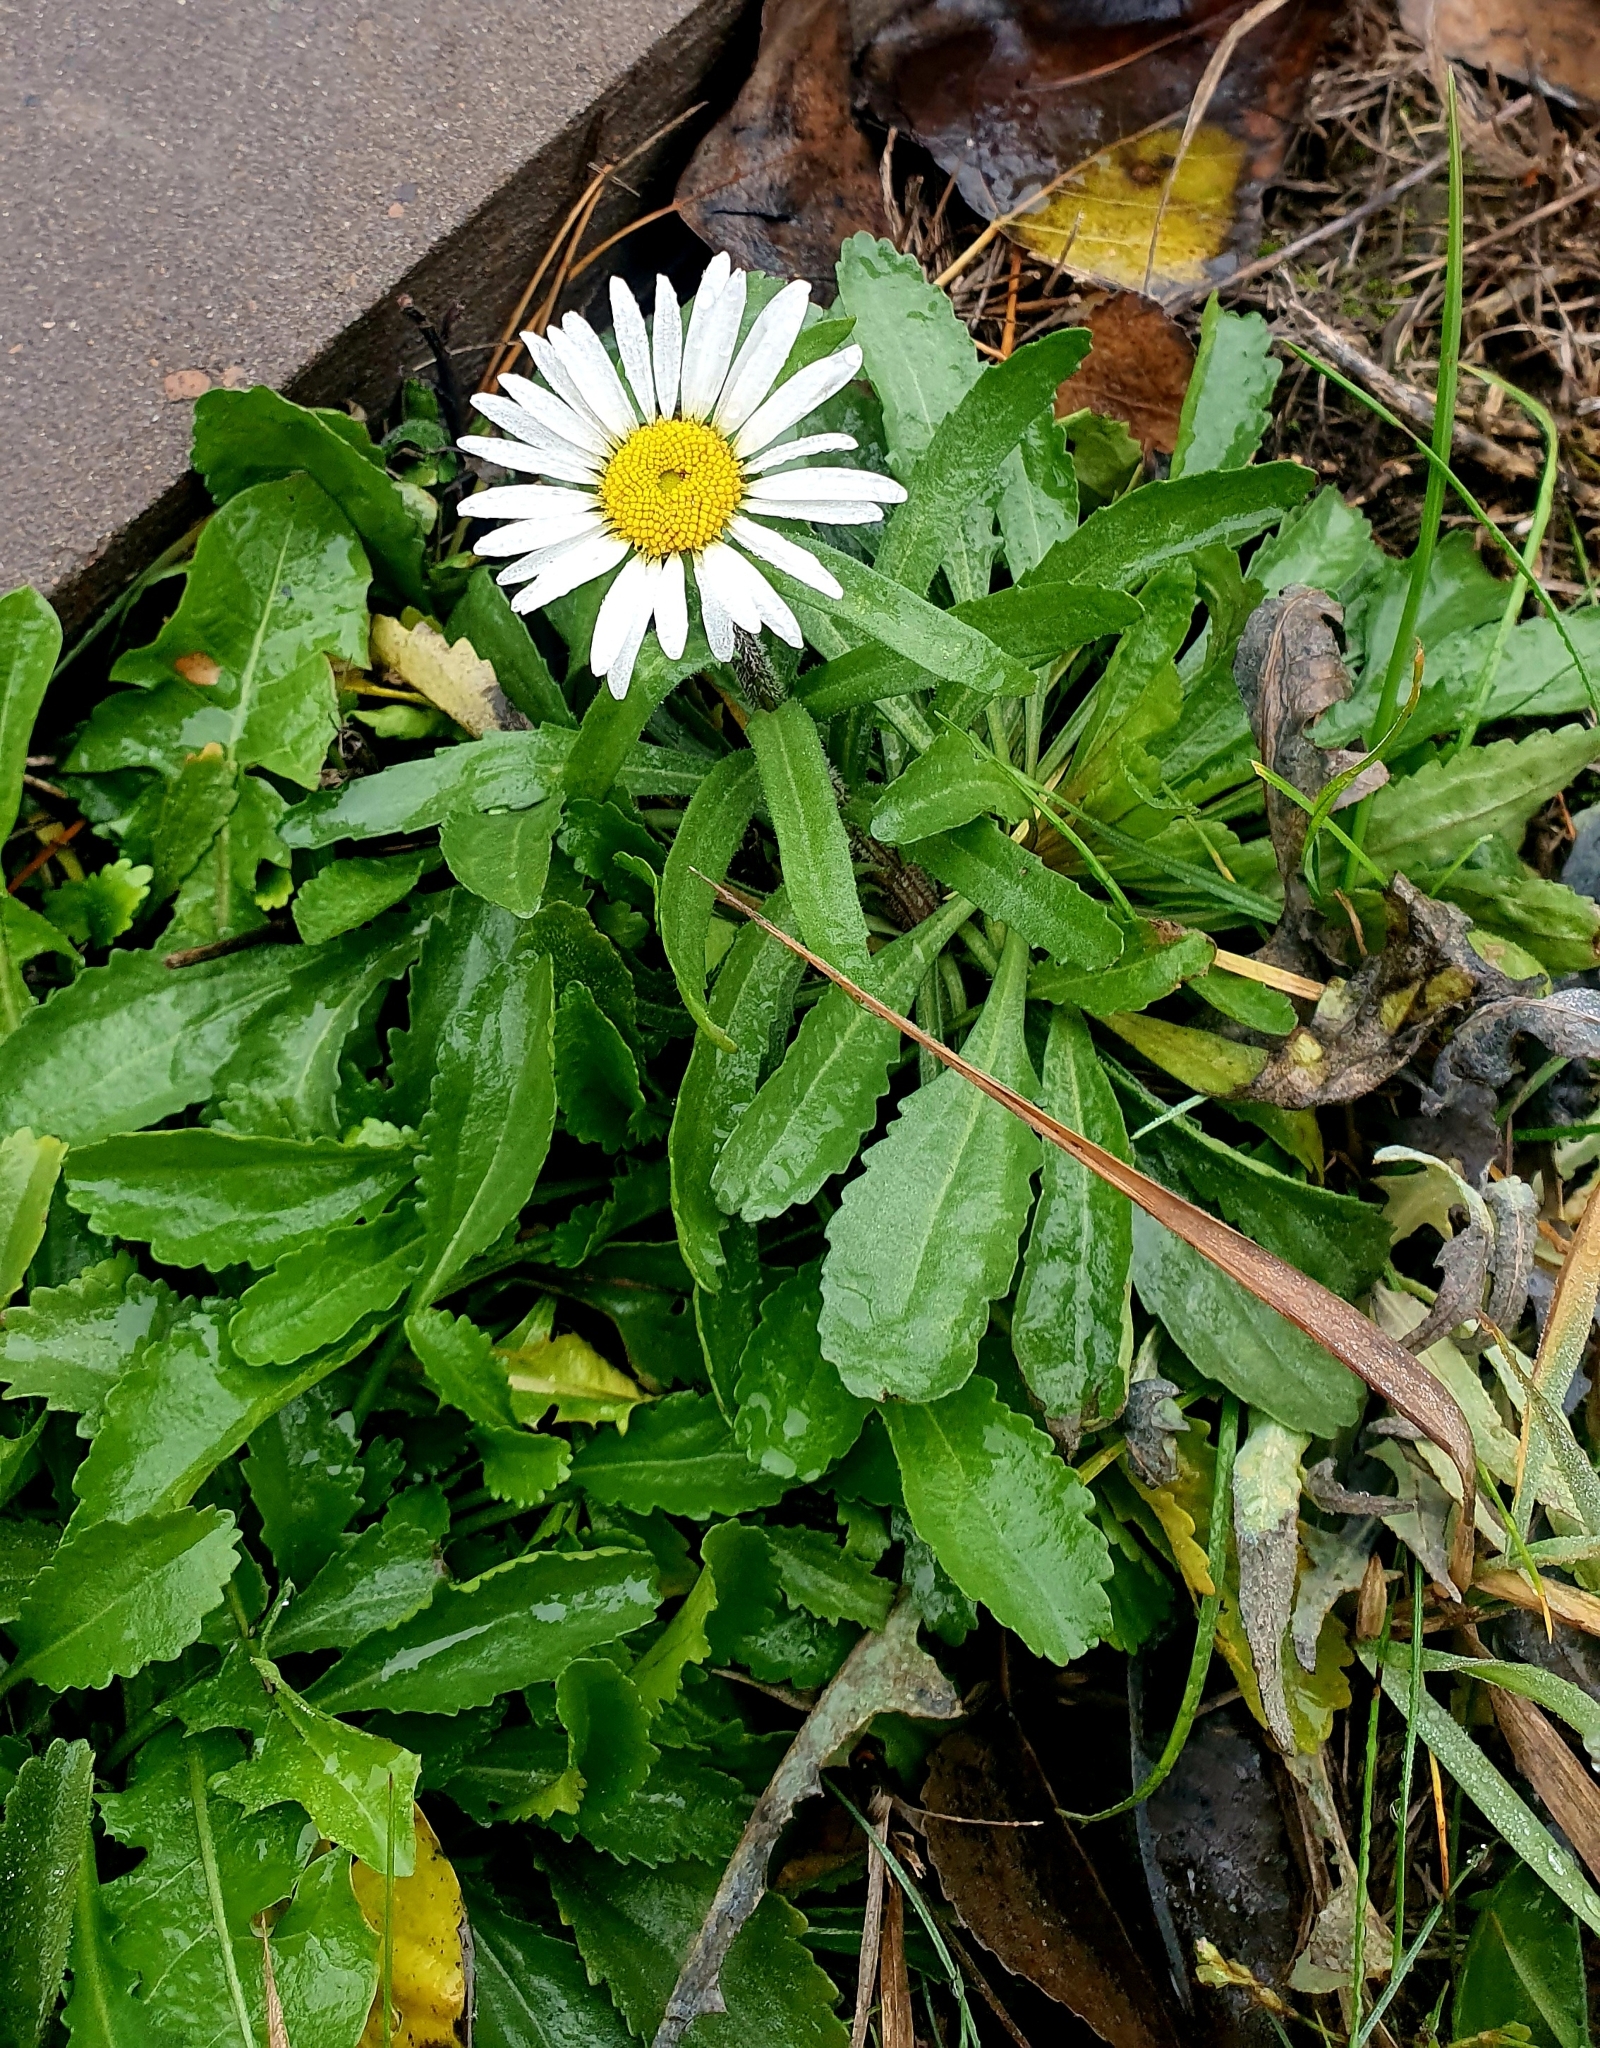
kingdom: Plantae
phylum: Tracheophyta
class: Magnoliopsida
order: Asterales
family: Asteraceae
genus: Leucanthemum
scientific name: Leucanthemum vulgare
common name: Oxeye daisy
